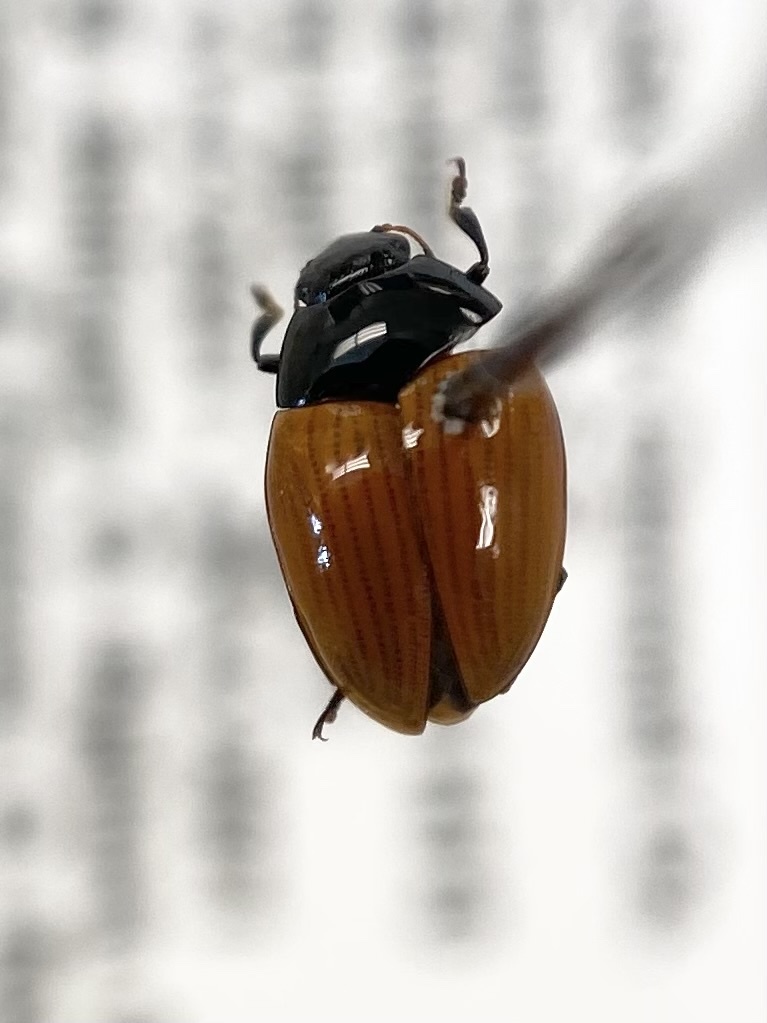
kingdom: Animalia
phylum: Arthropoda
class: Insecta
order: Coleoptera
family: Erotylidae
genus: Tritoma
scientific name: Tritoma sanguinipennis
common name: Red-winged tritoma
